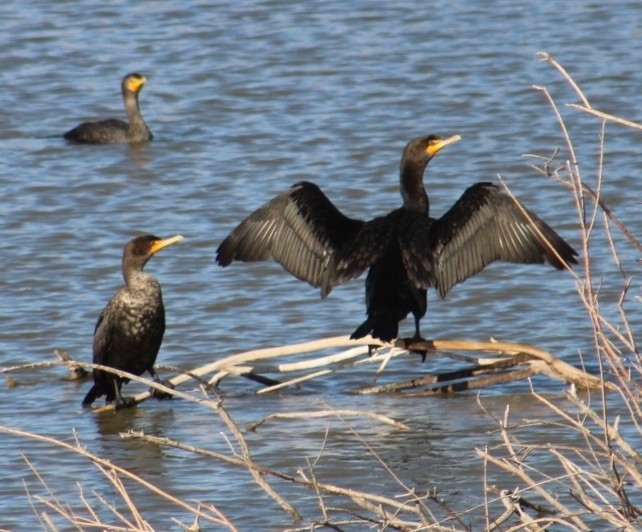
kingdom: Animalia
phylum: Chordata
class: Aves
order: Suliformes
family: Phalacrocoracidae
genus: Phalacrocorax
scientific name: Phalacrocorax auritus
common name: Double-crested cormorant
